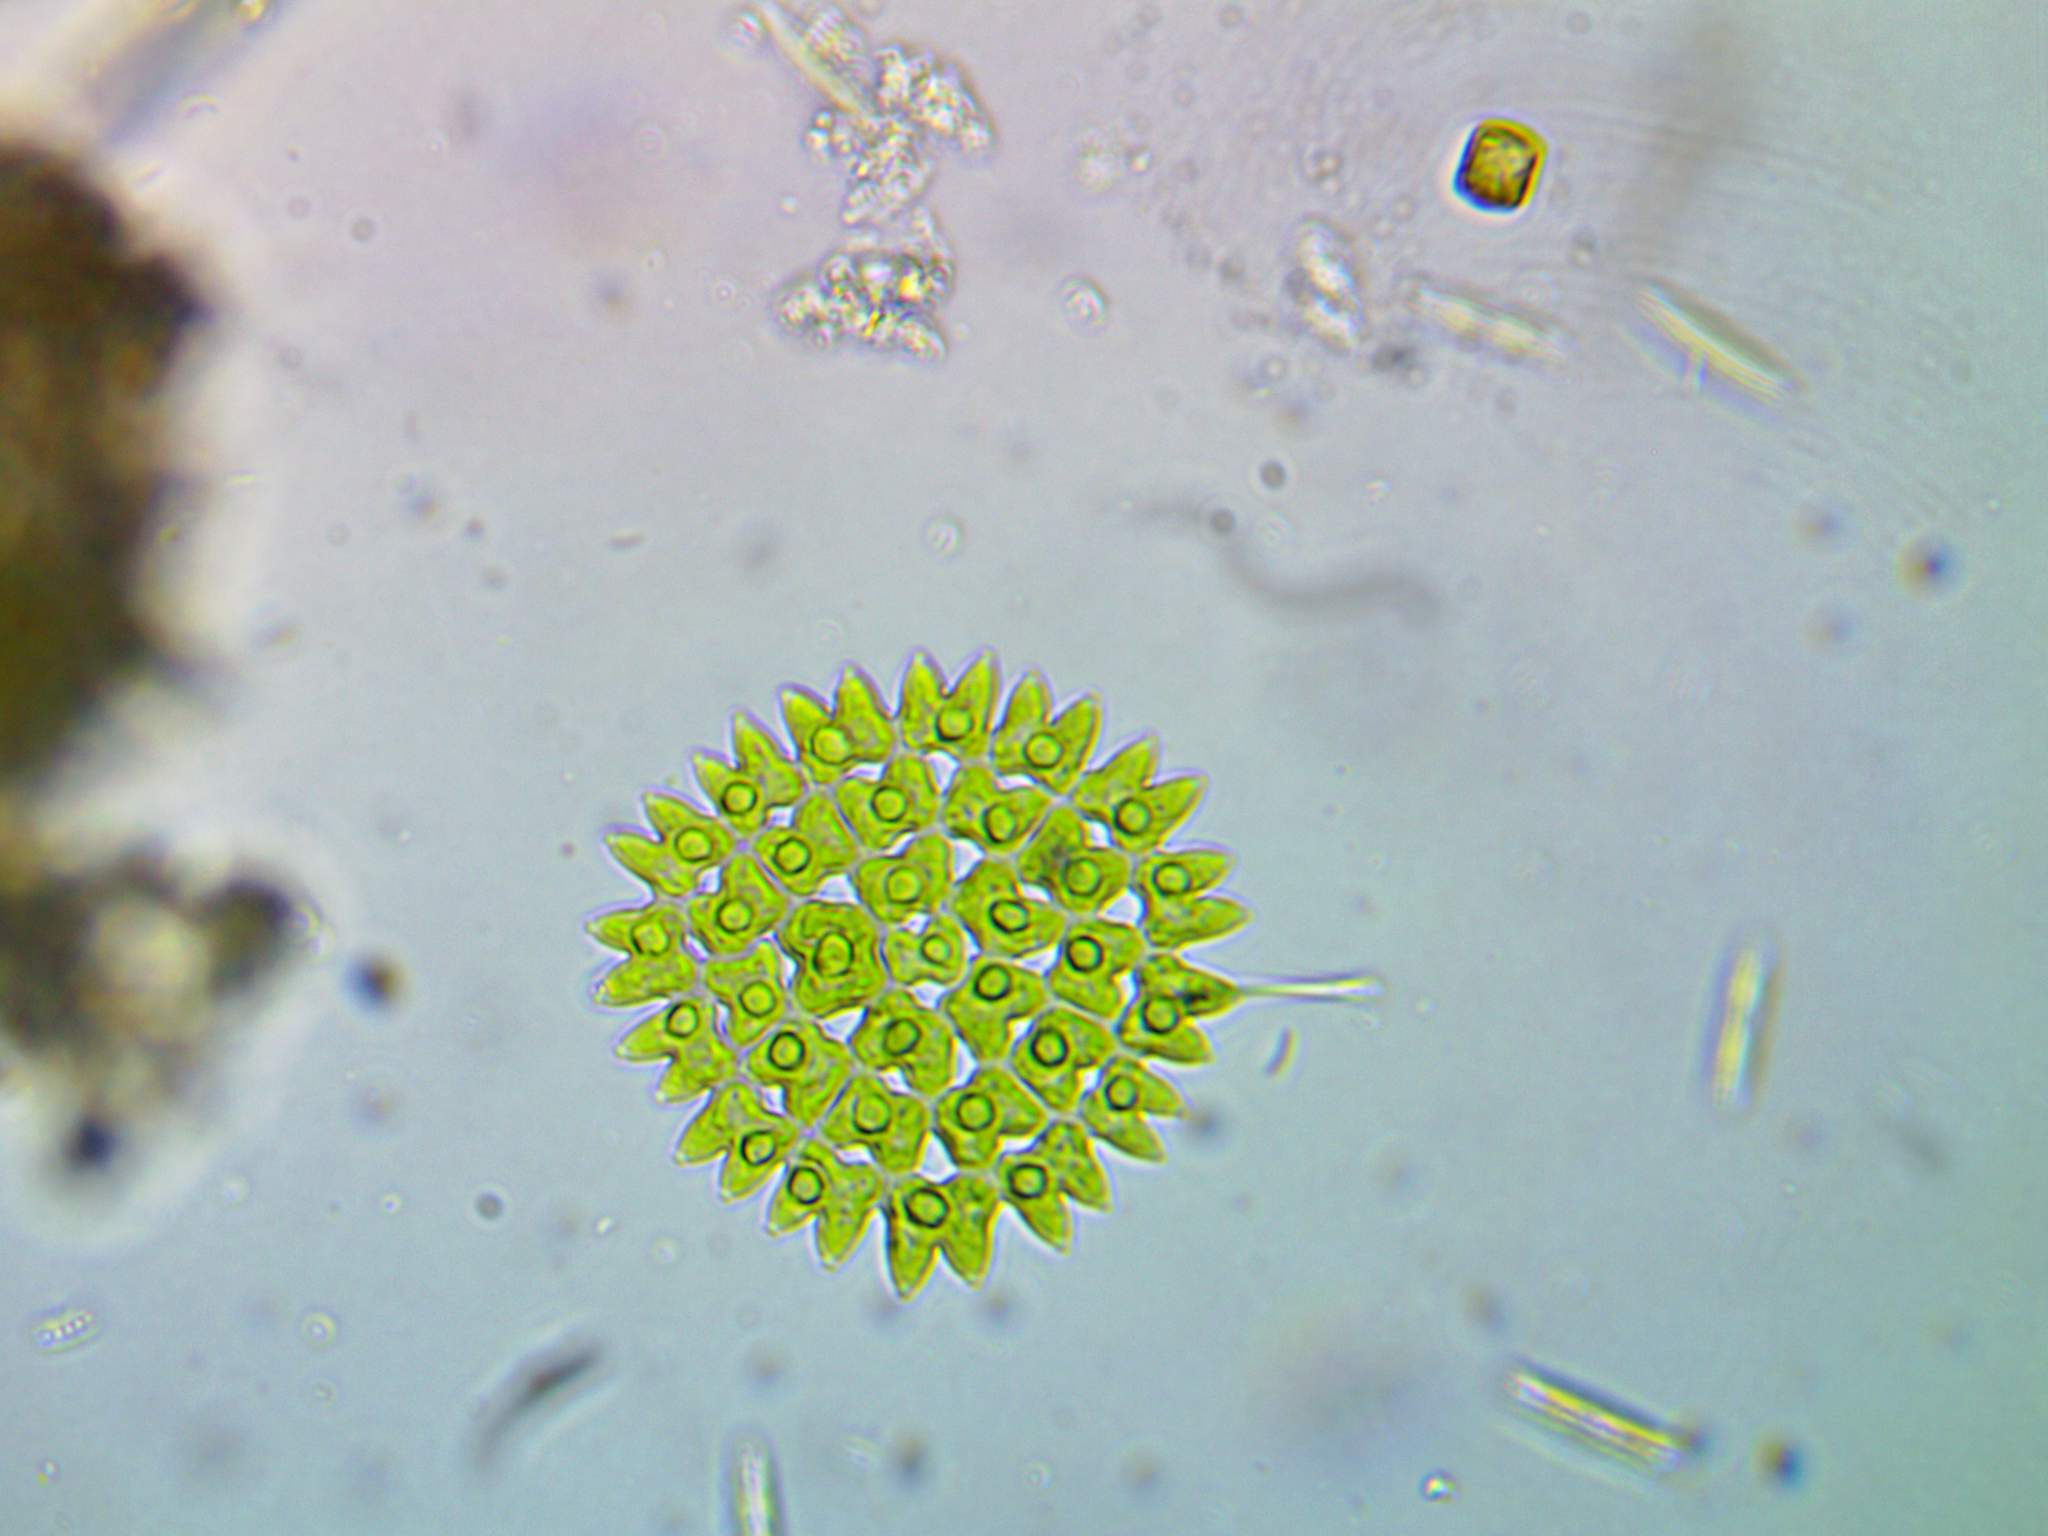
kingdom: Plantae
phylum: Chlorophyta
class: Chlorophyceae
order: Sphaeropleales
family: Hydrodictyaceae
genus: Pediastrum
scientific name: Pediastrum duplex
